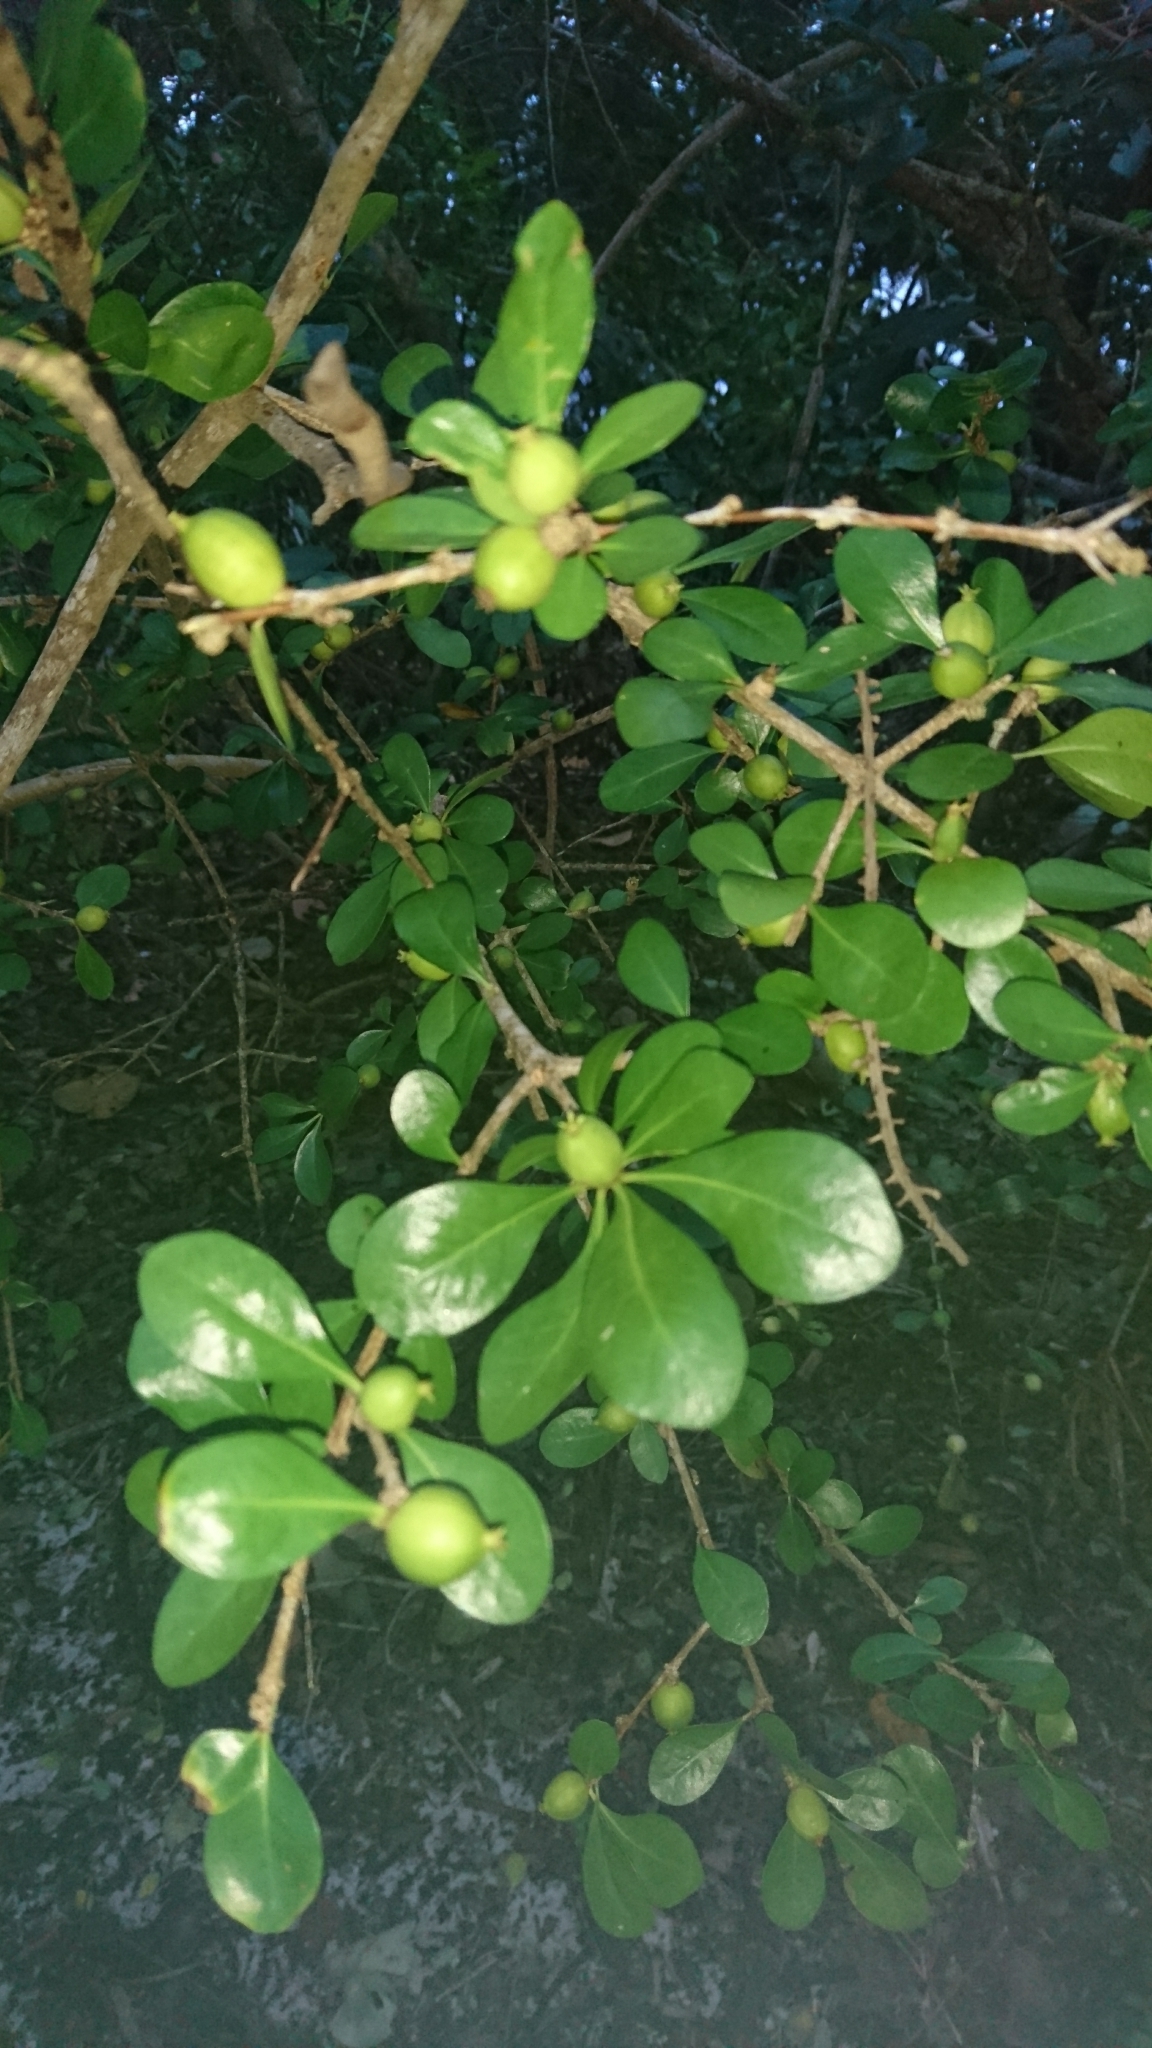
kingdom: Plantae
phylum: Tracheophyta
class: Magnoliopsida
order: Gentianales
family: Rubiaceae
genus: Randia
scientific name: Randia aculeata
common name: Inkberry
